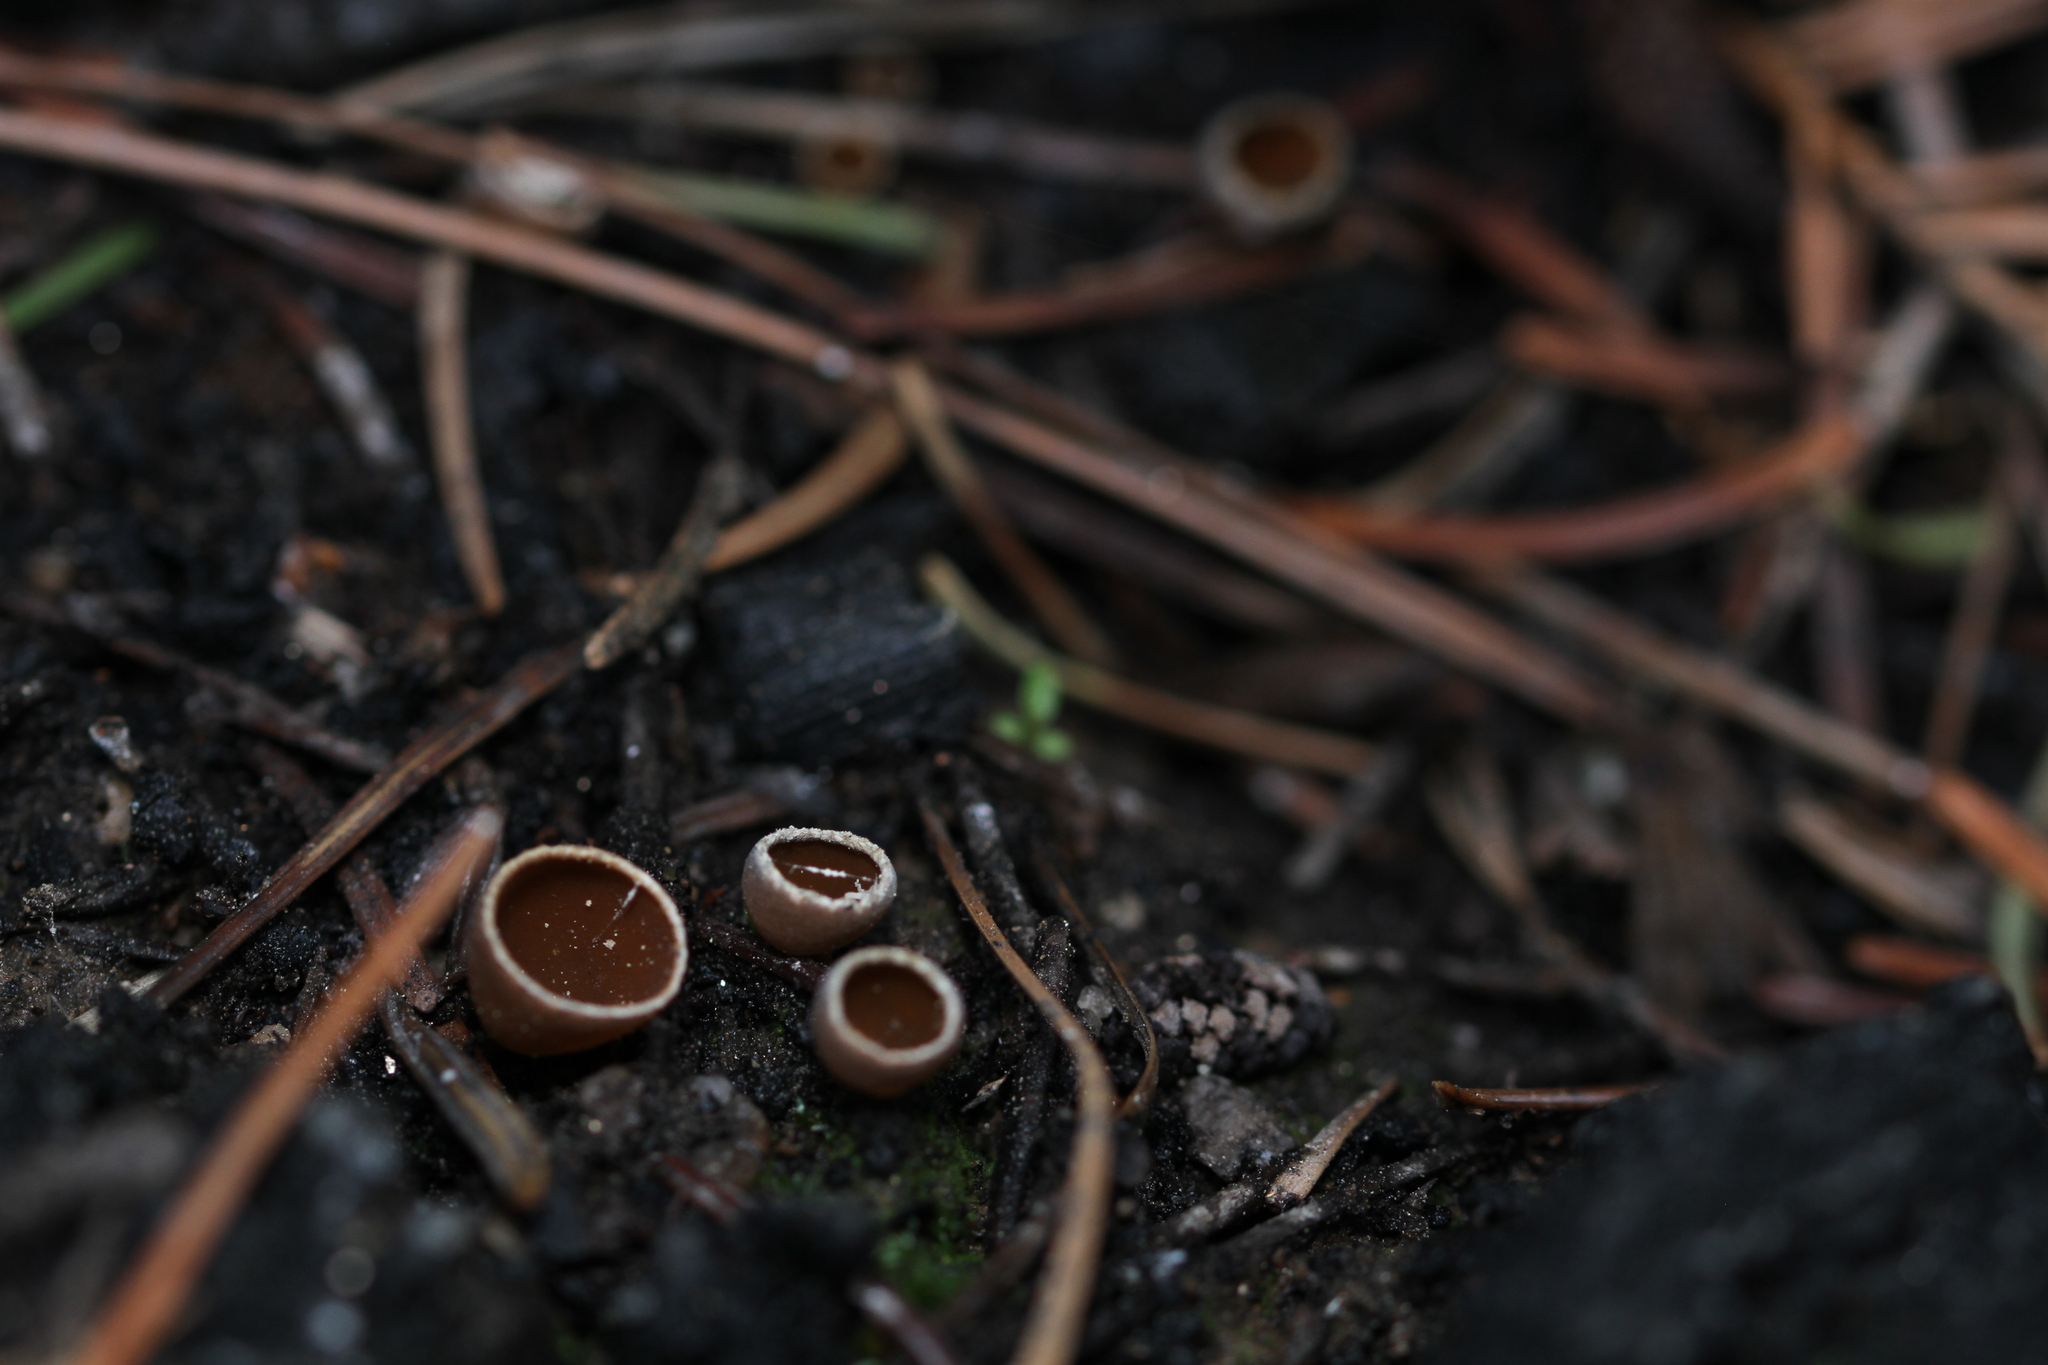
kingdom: Fungi
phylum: Ascomycota
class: Pezizomycetes
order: Pezizales
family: Pyronemataceae
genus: Geopyxis
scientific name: Geopyxis carbonaria
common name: Stalked bonfire cup
